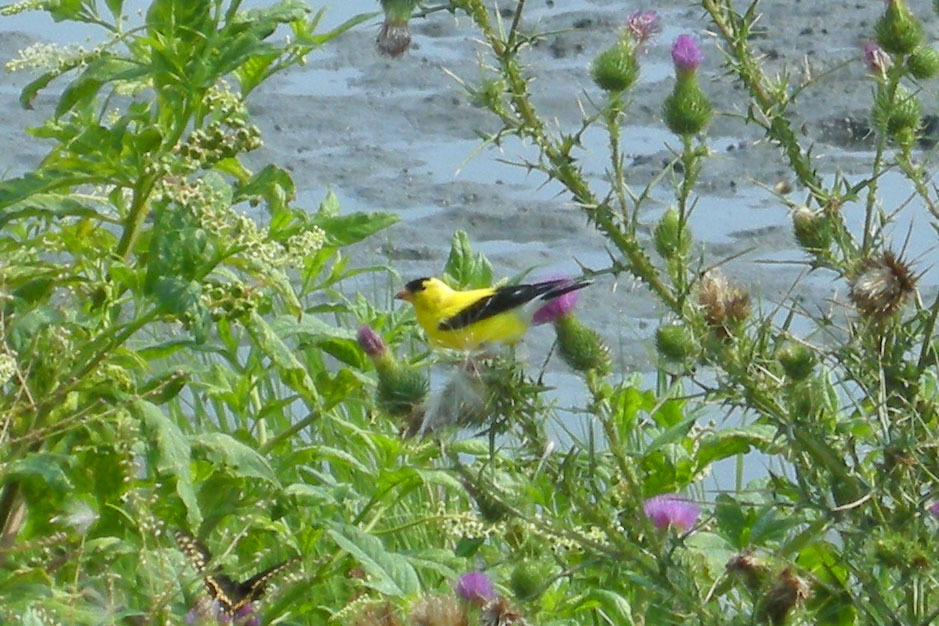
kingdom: Animalia
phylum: Chordata
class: Aves
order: Passeriformes
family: Fringillidae
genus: Spinus
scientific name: Spinus tristis
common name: American goldfinch
